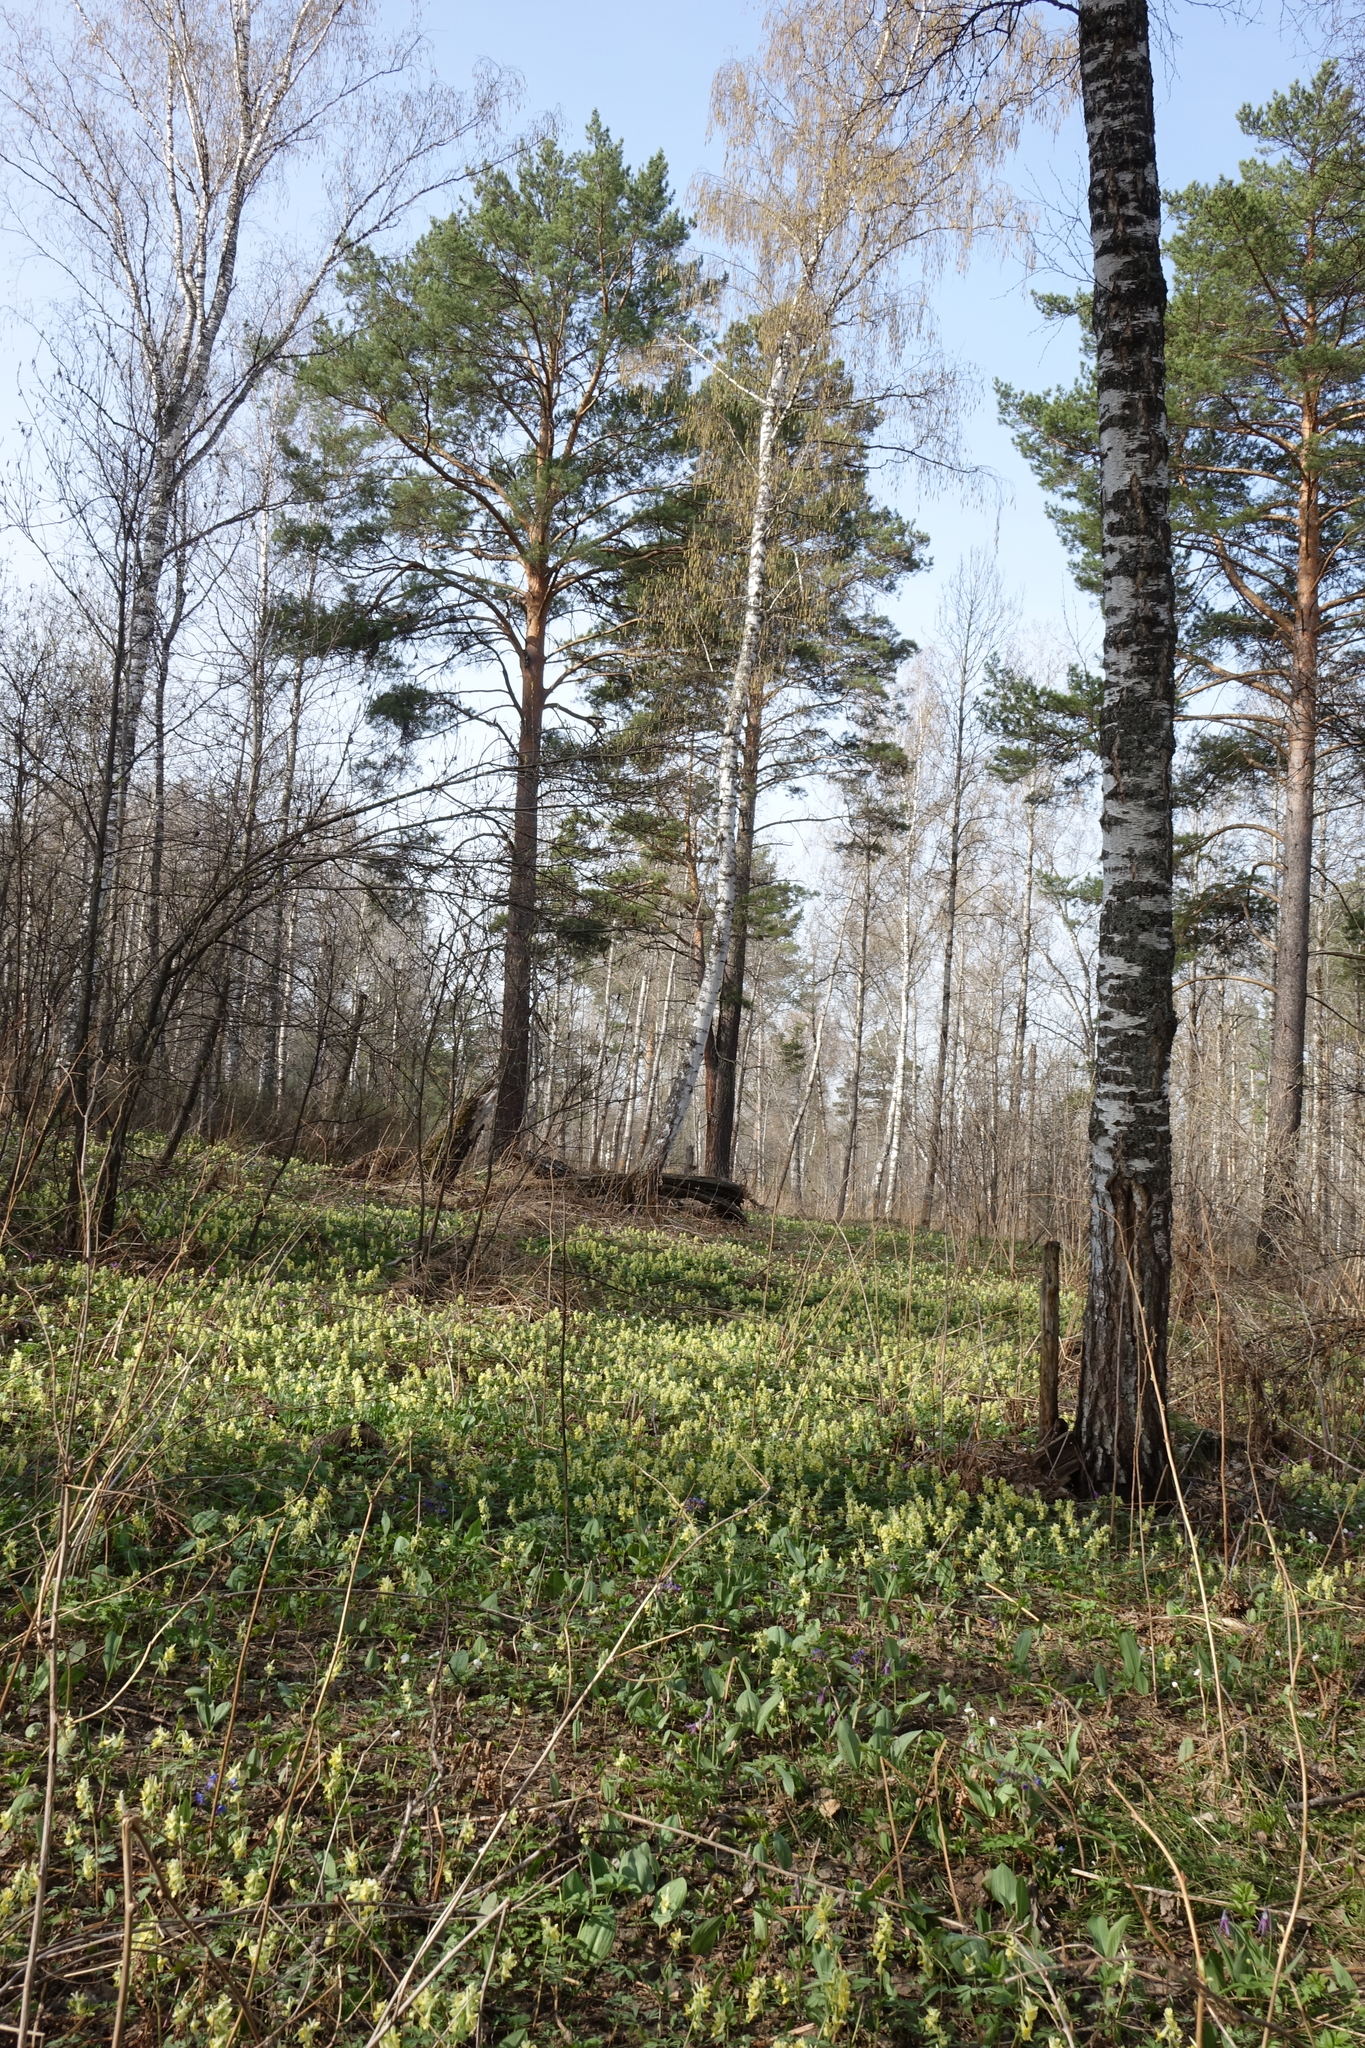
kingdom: Plantae
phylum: Tracheophyta
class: Magnoliopsida
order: Ranunculales
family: Papaveraceae
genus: Corydalis
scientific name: Corydalis bracteata
